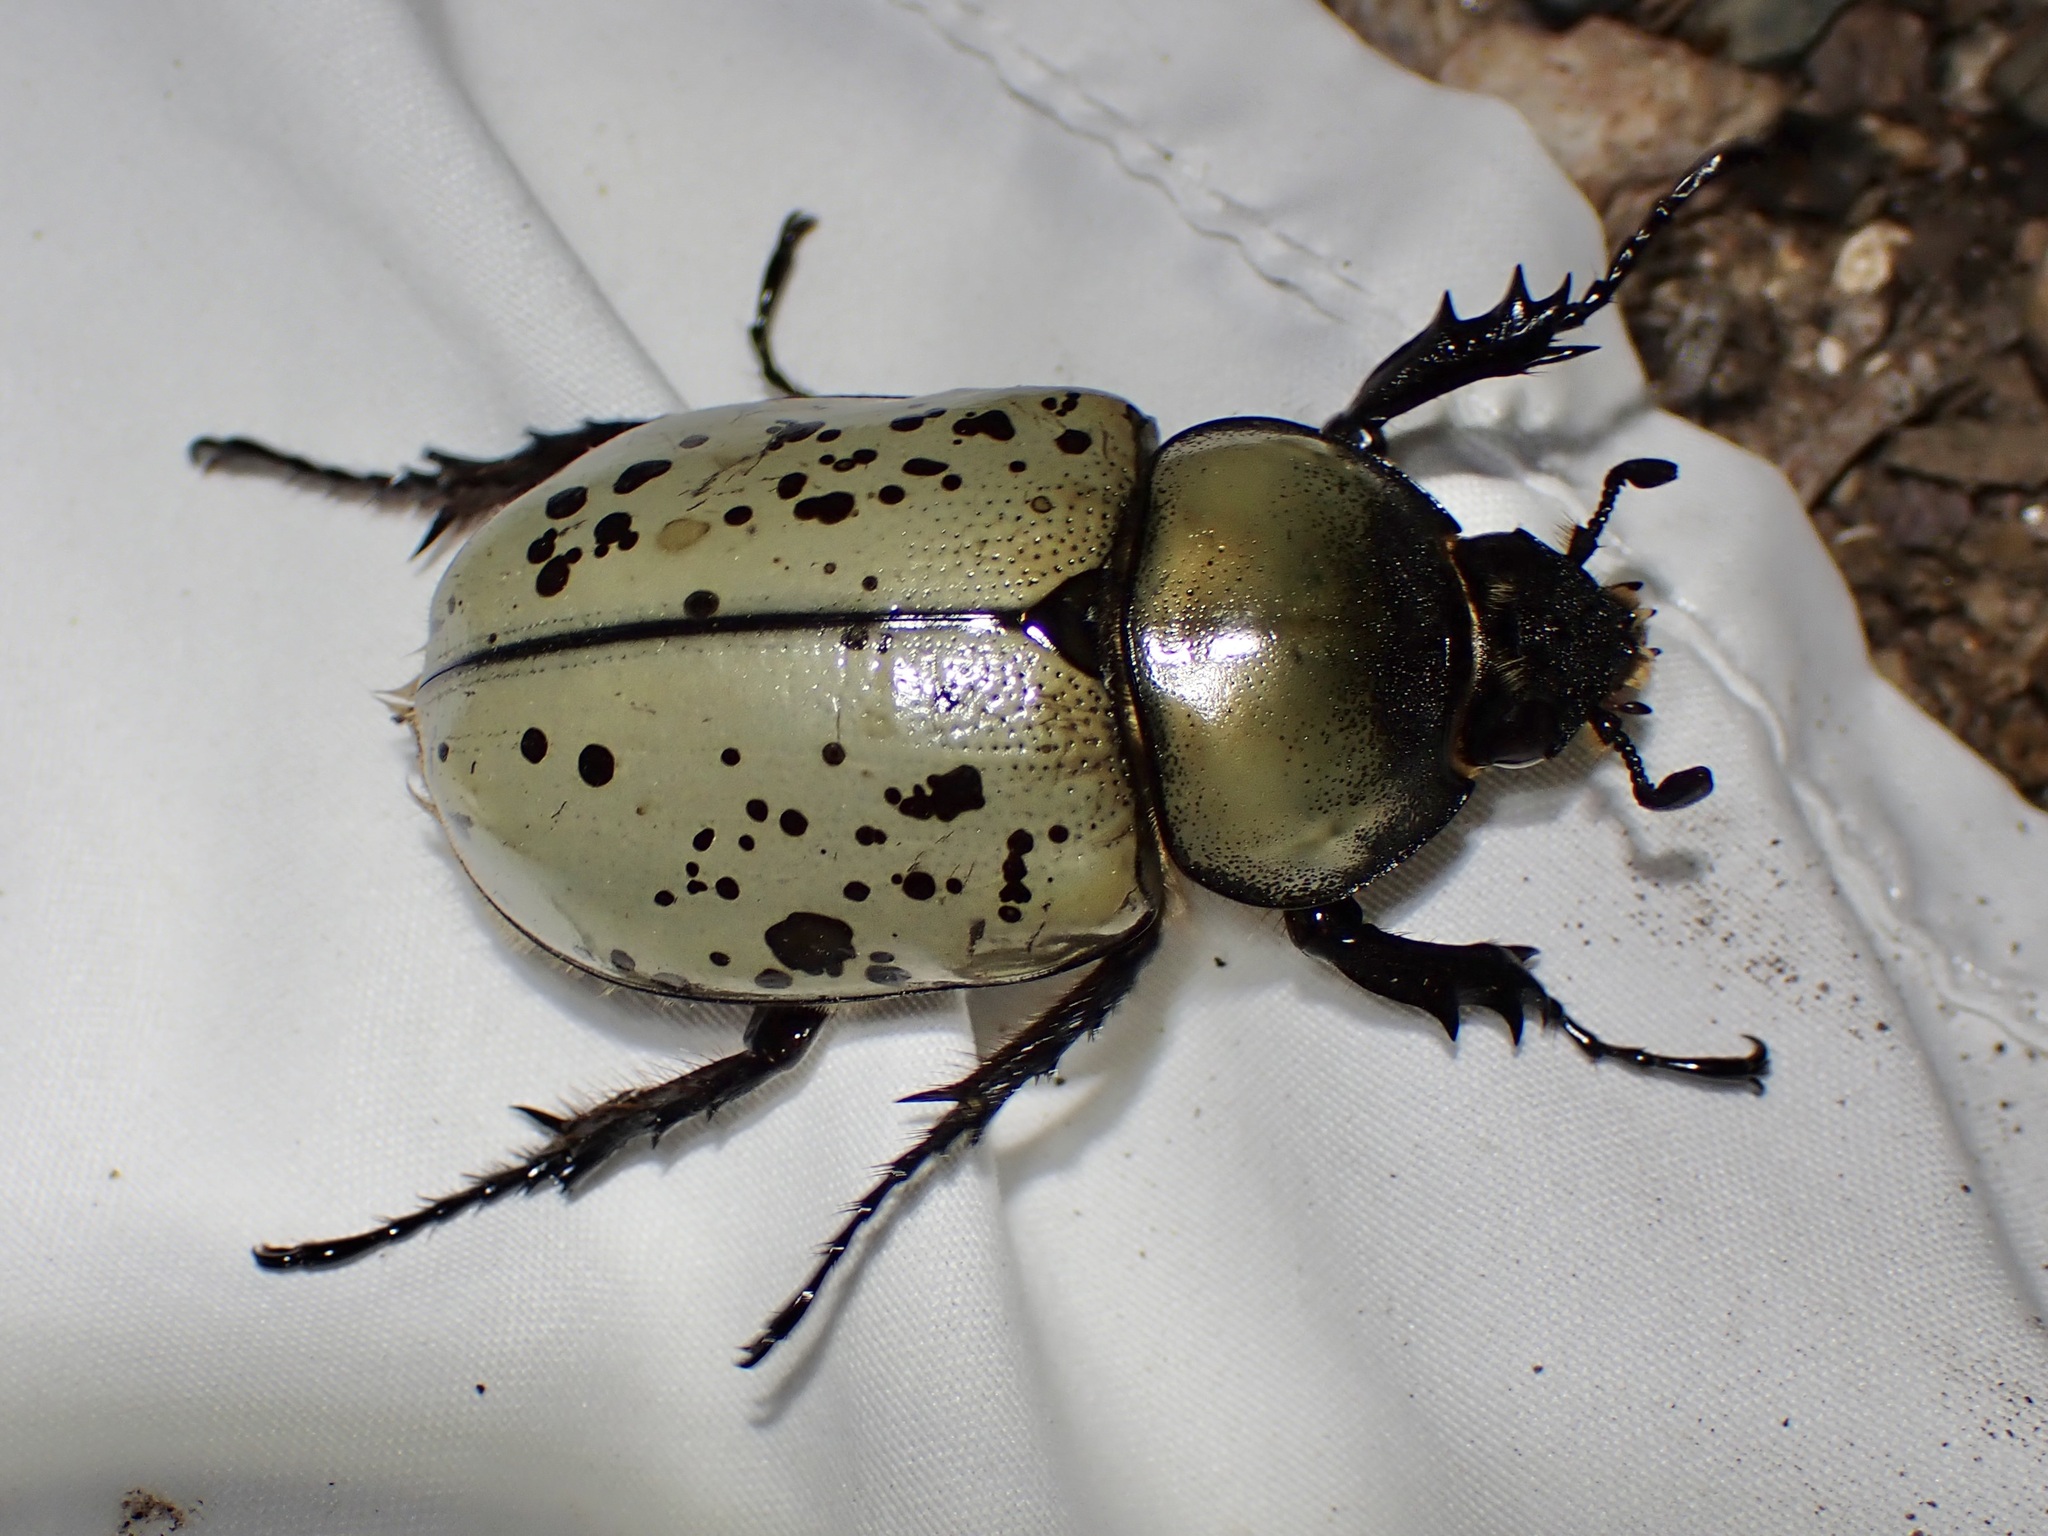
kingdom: Animalia
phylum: Arthropoda
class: Insecta
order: Coleoptera
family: Scarabaeidae
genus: Dynastes
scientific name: Dynastes grantii
